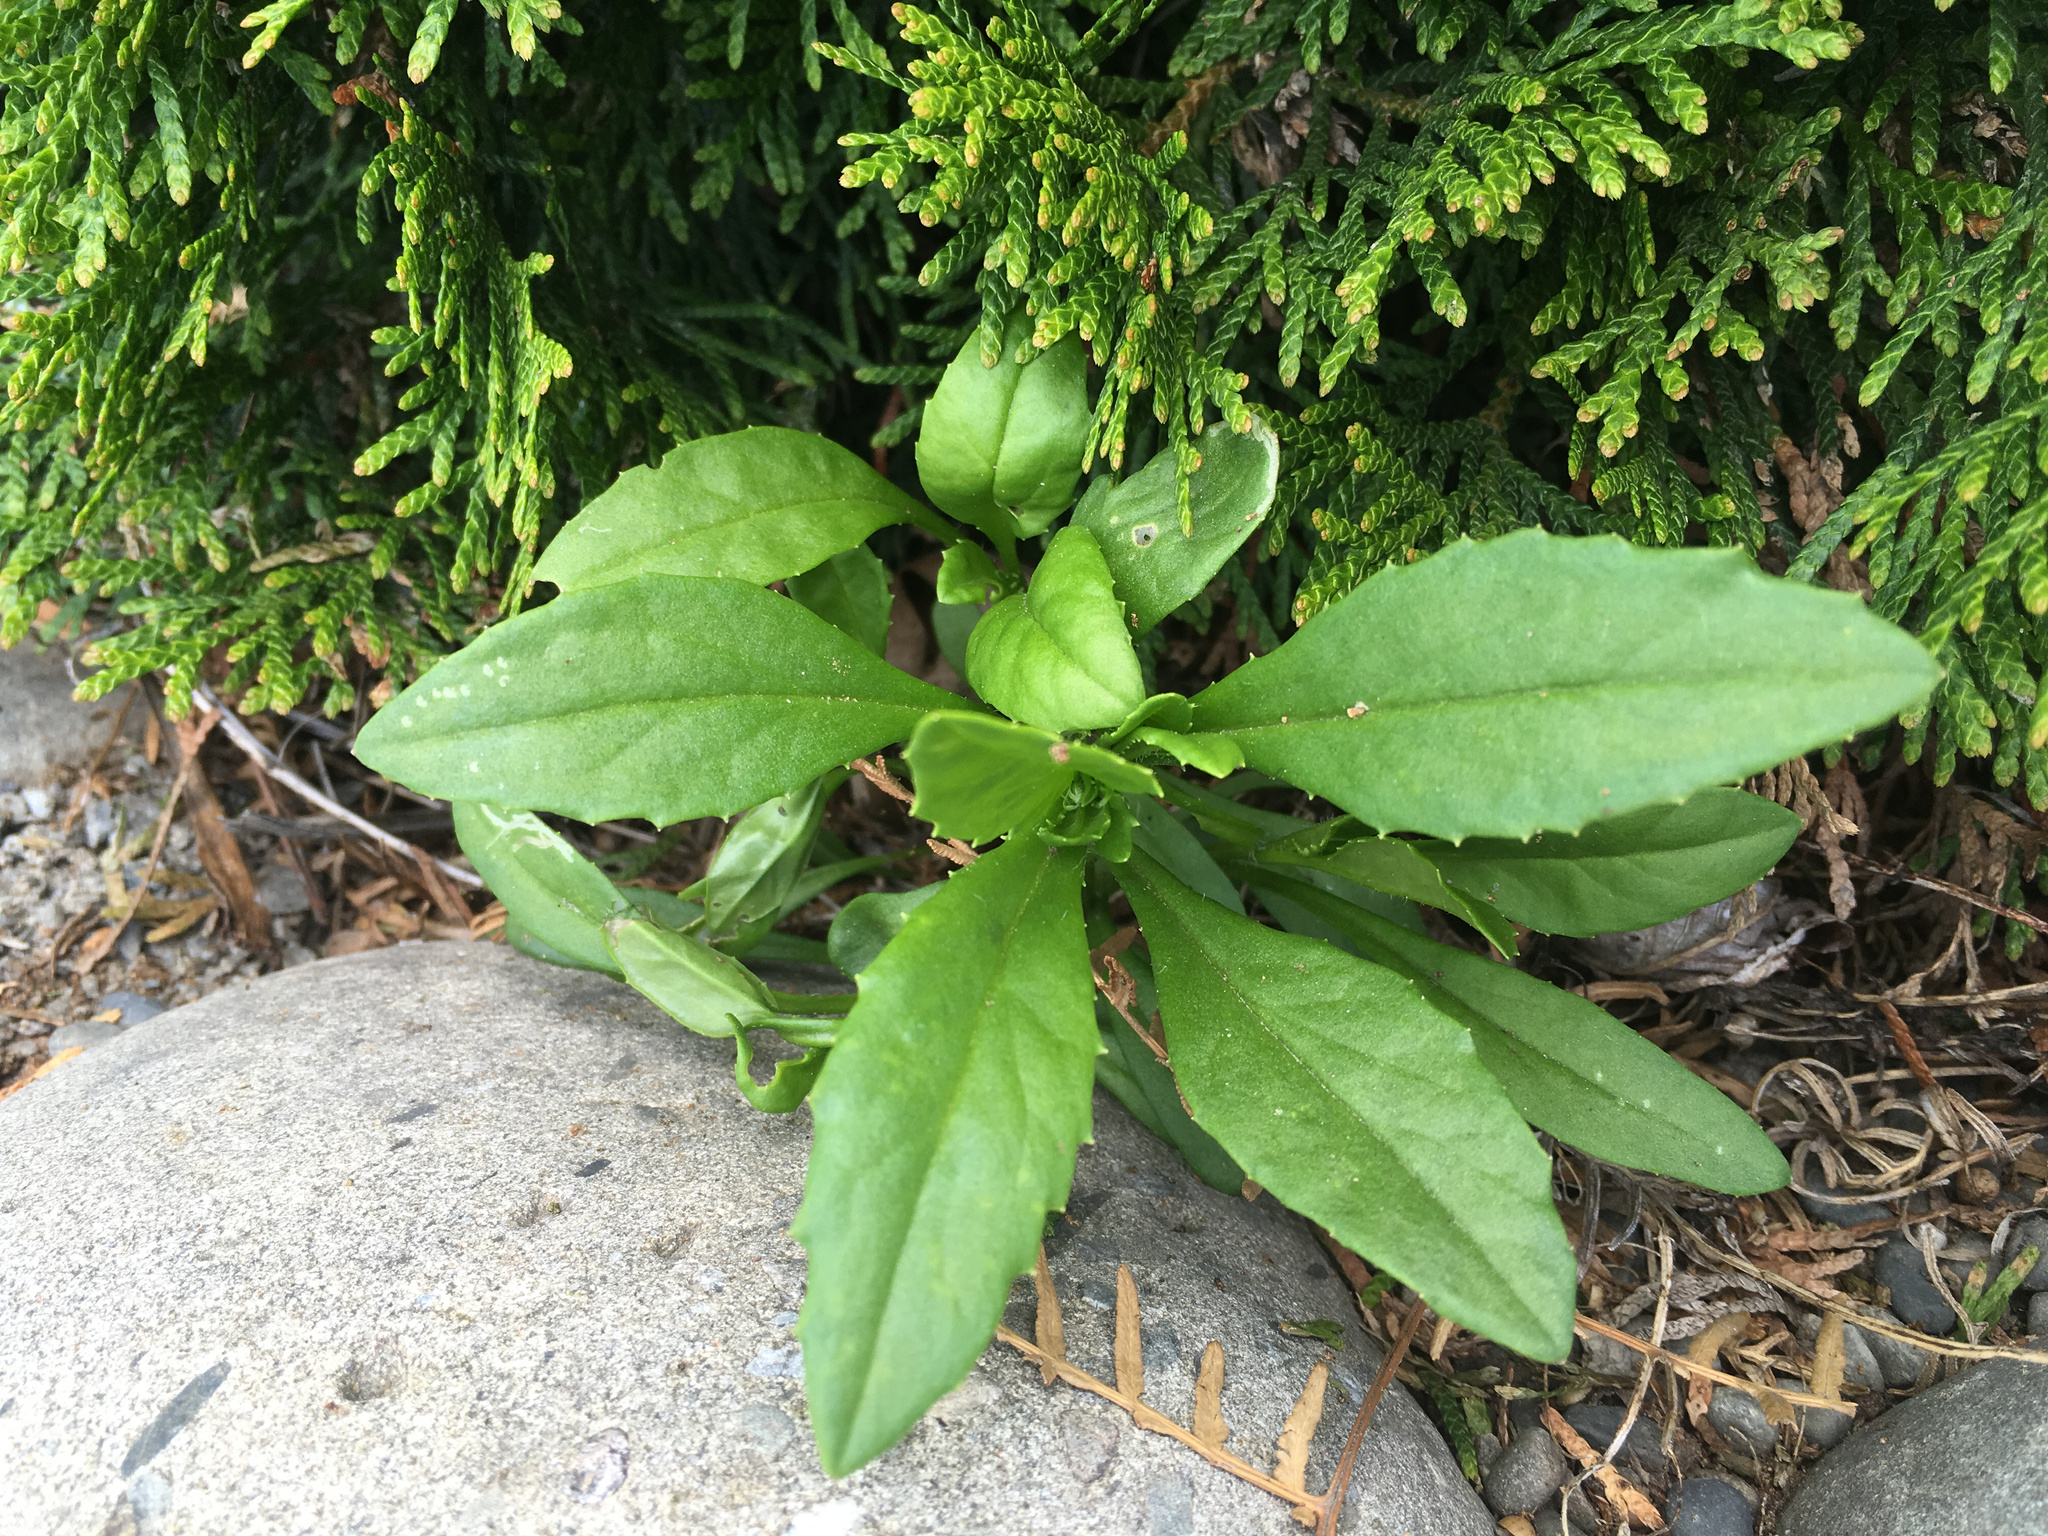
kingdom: Plantae
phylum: Tracheophyta
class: Magnoliopsida
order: Asterales
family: Asteraceae
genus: Senecio
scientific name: Senecio skirrhodon
